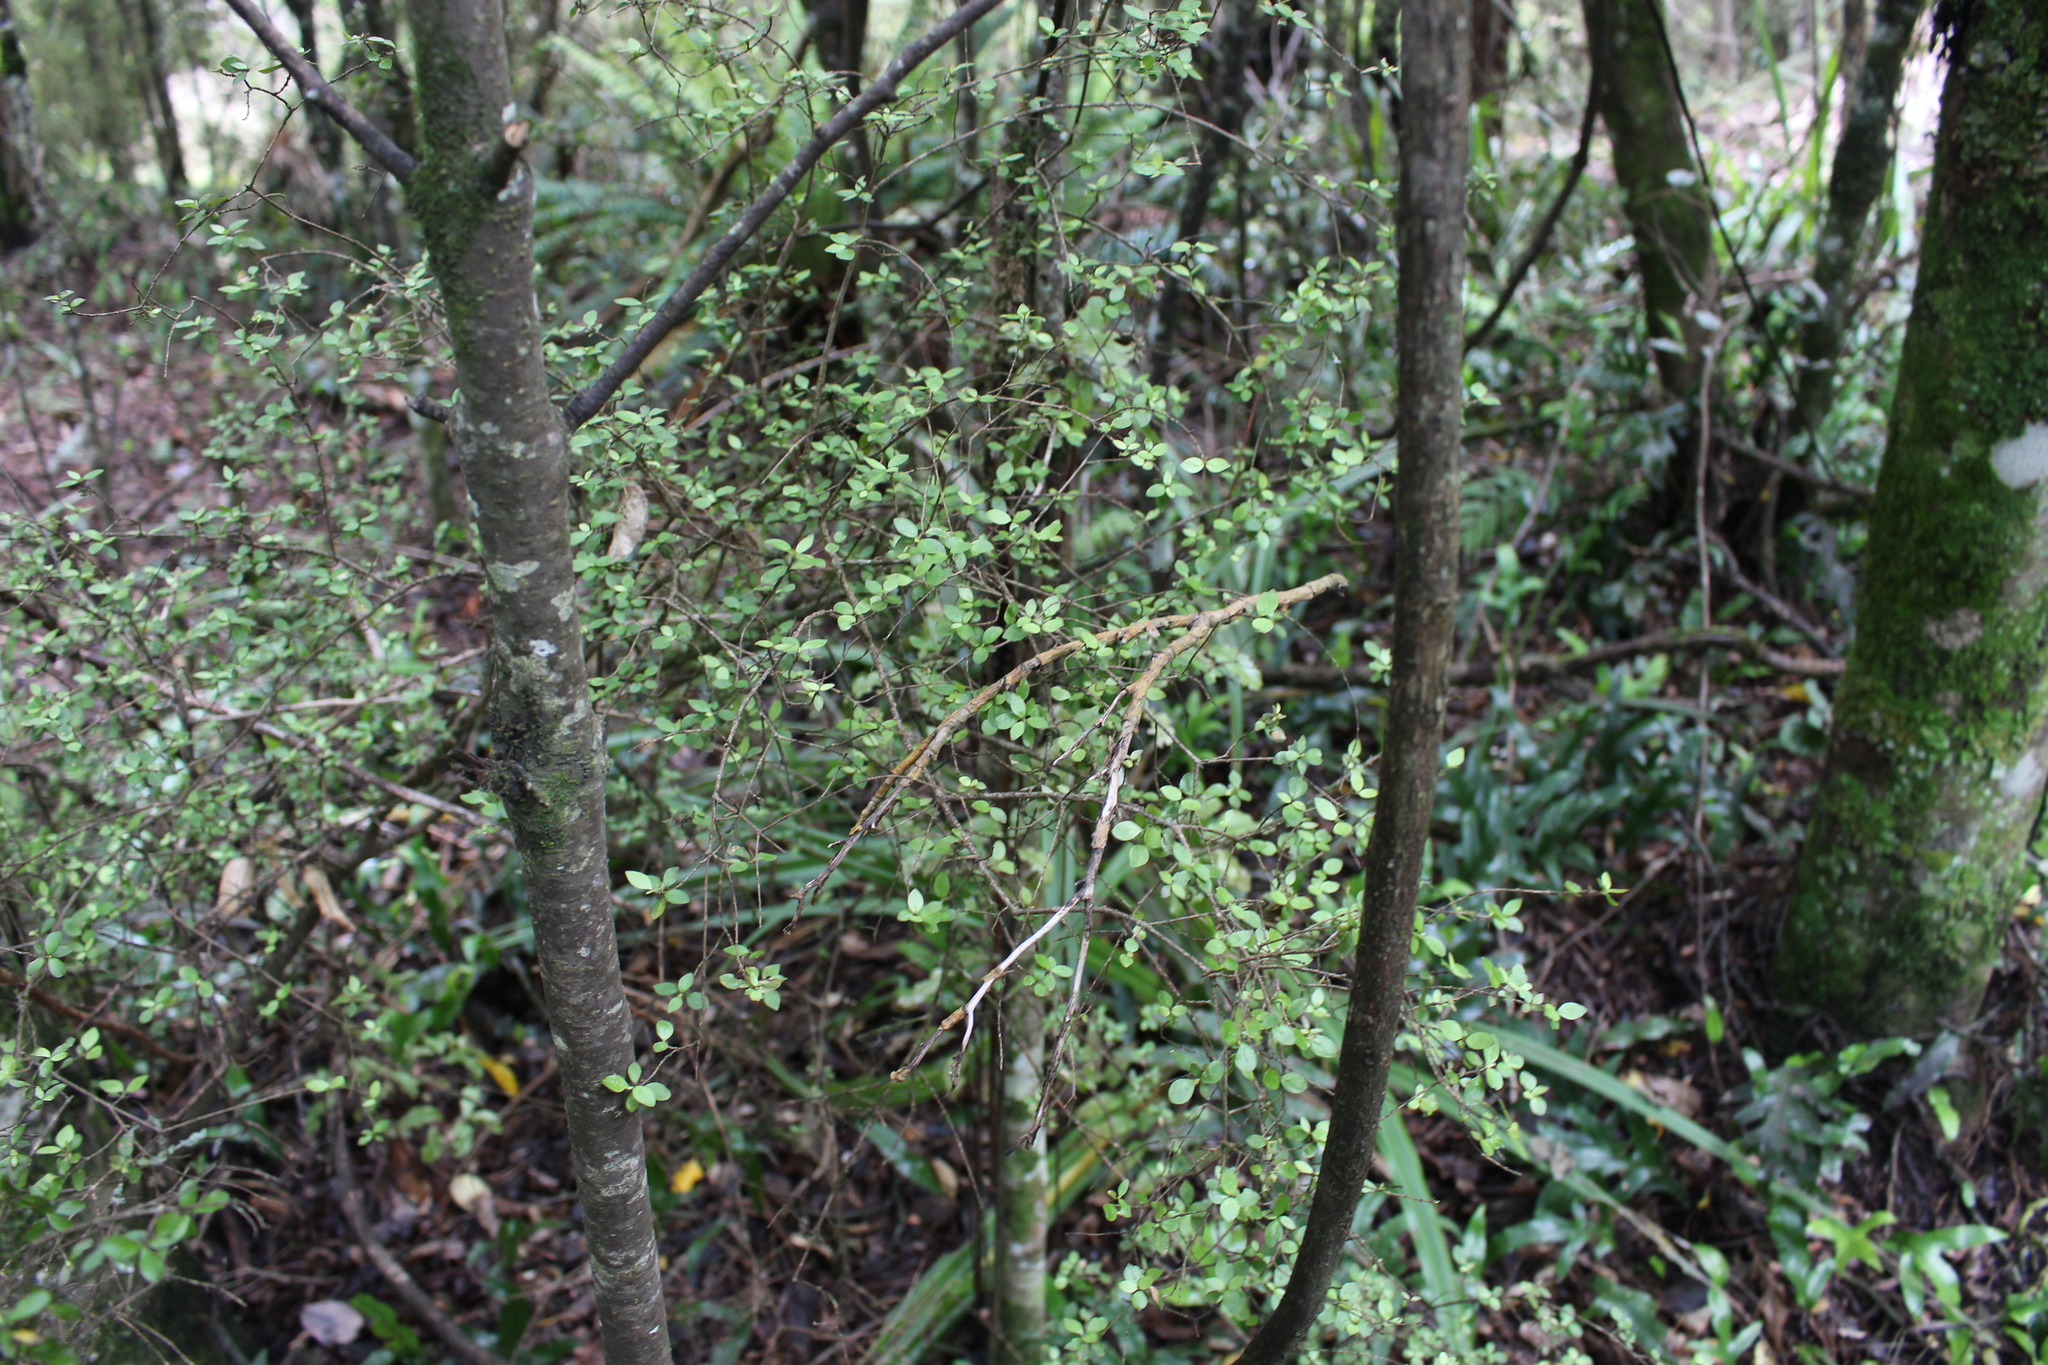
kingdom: Plantae
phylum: Tracheophyta
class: Magnoliopsida
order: Gentianales
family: Rubiaceae
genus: Coprosma
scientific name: Coprosma rhamnoides
